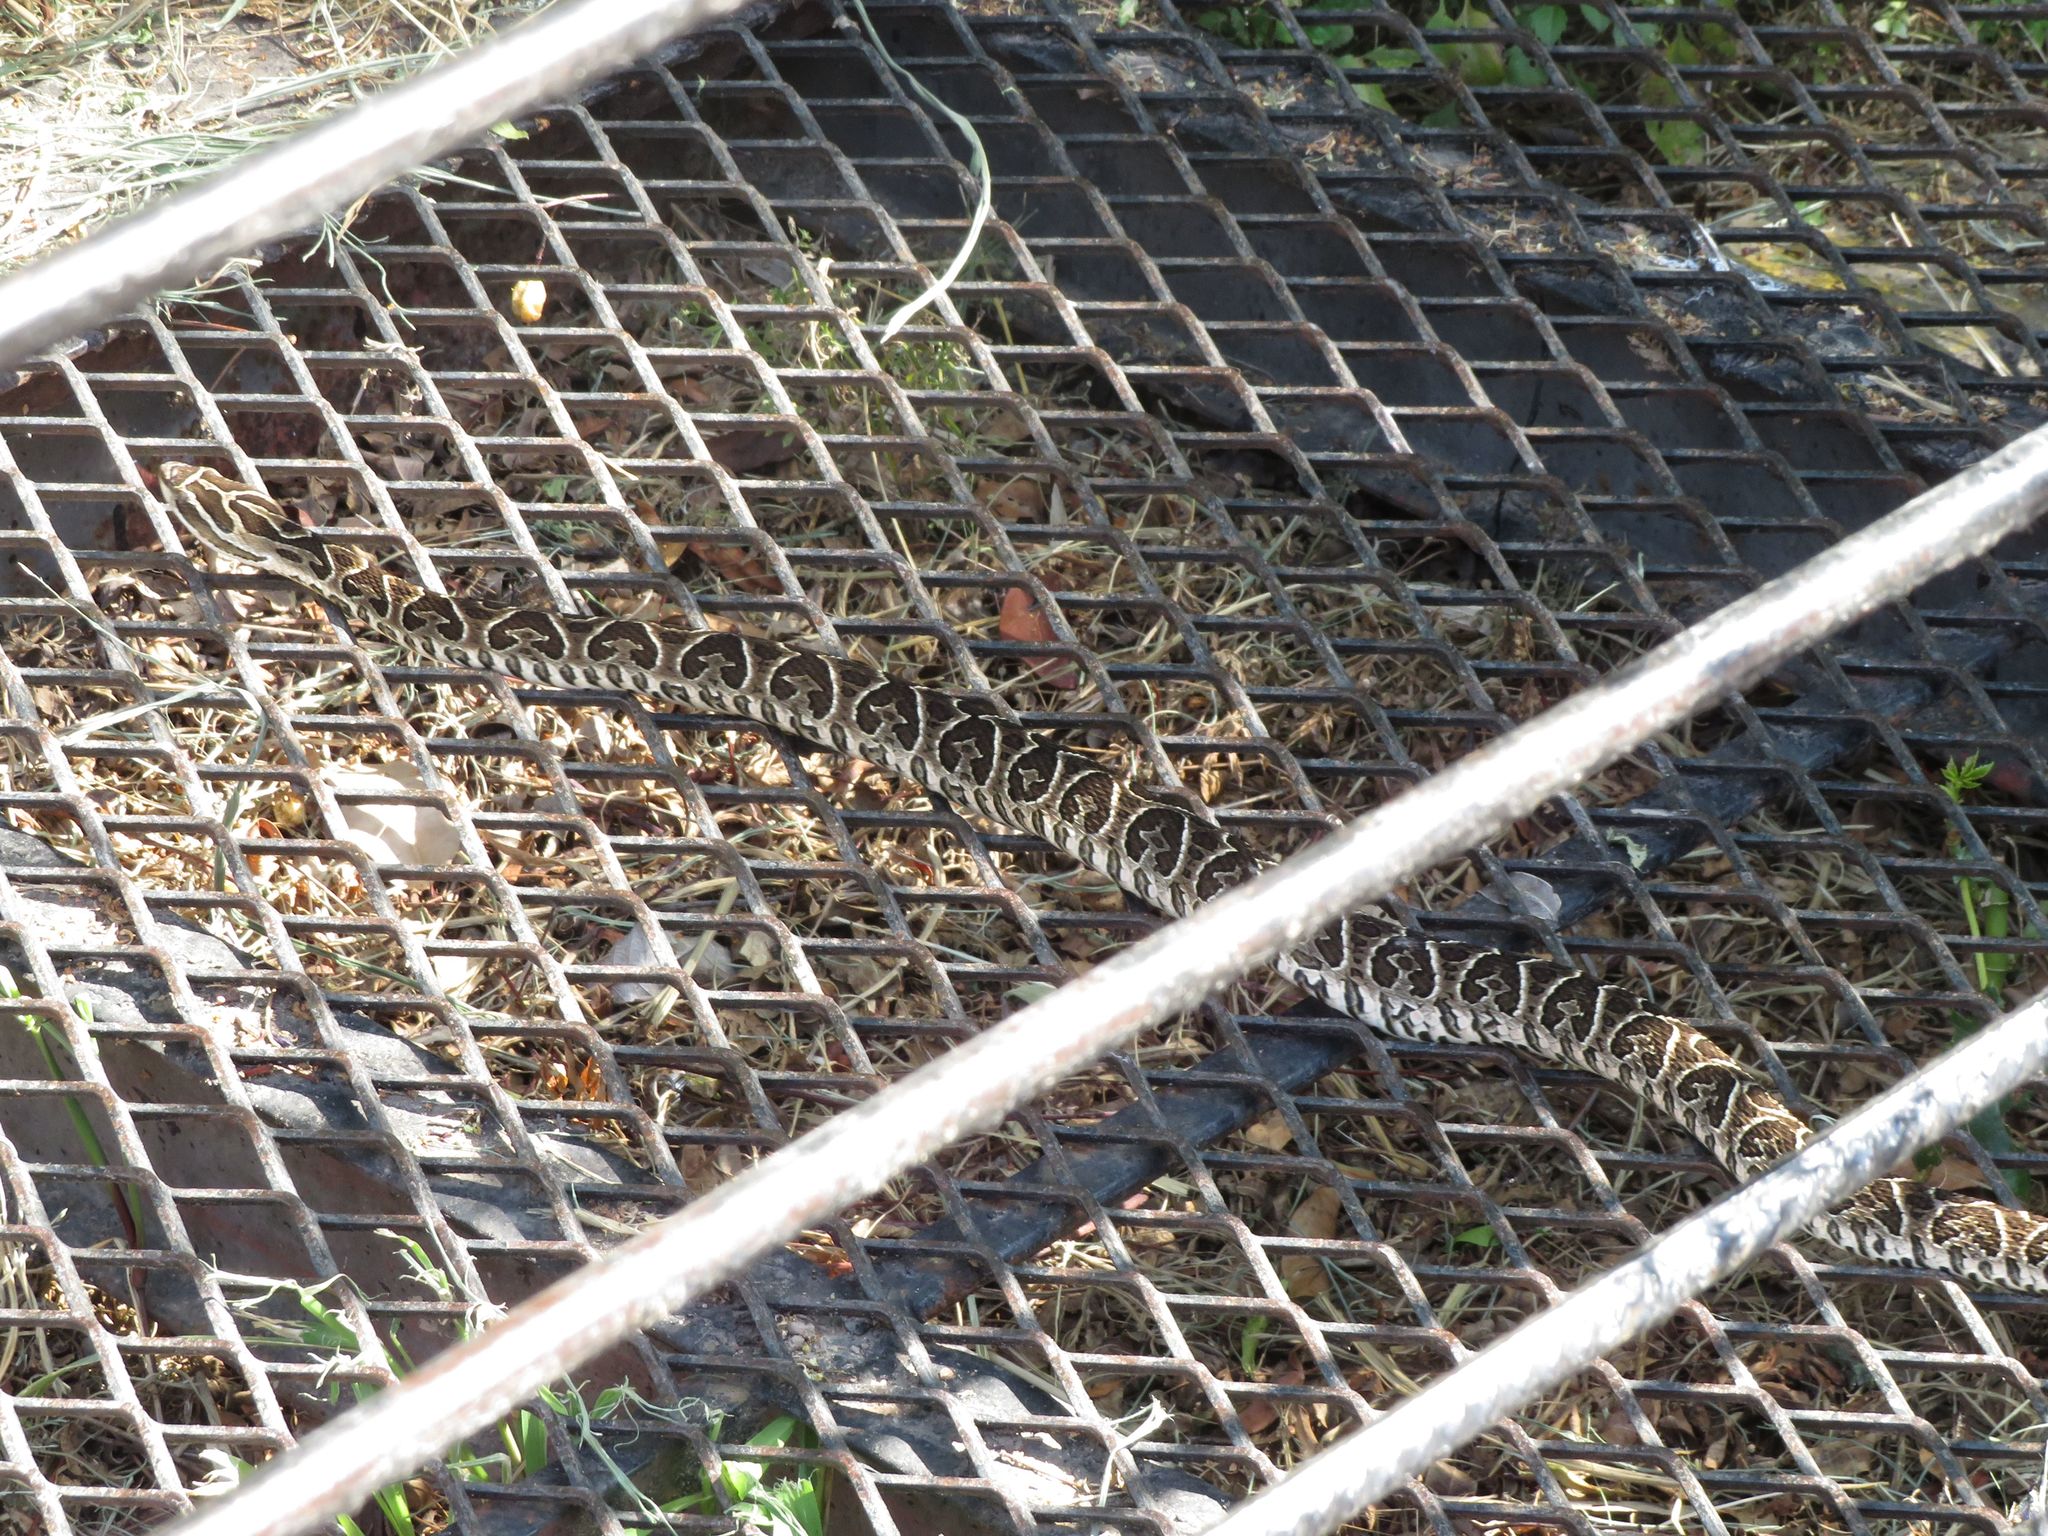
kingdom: Animalia
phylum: Chordata
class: Squamata
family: Viperidae
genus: Bothrops
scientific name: Bothrops alternatus
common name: Urutu
